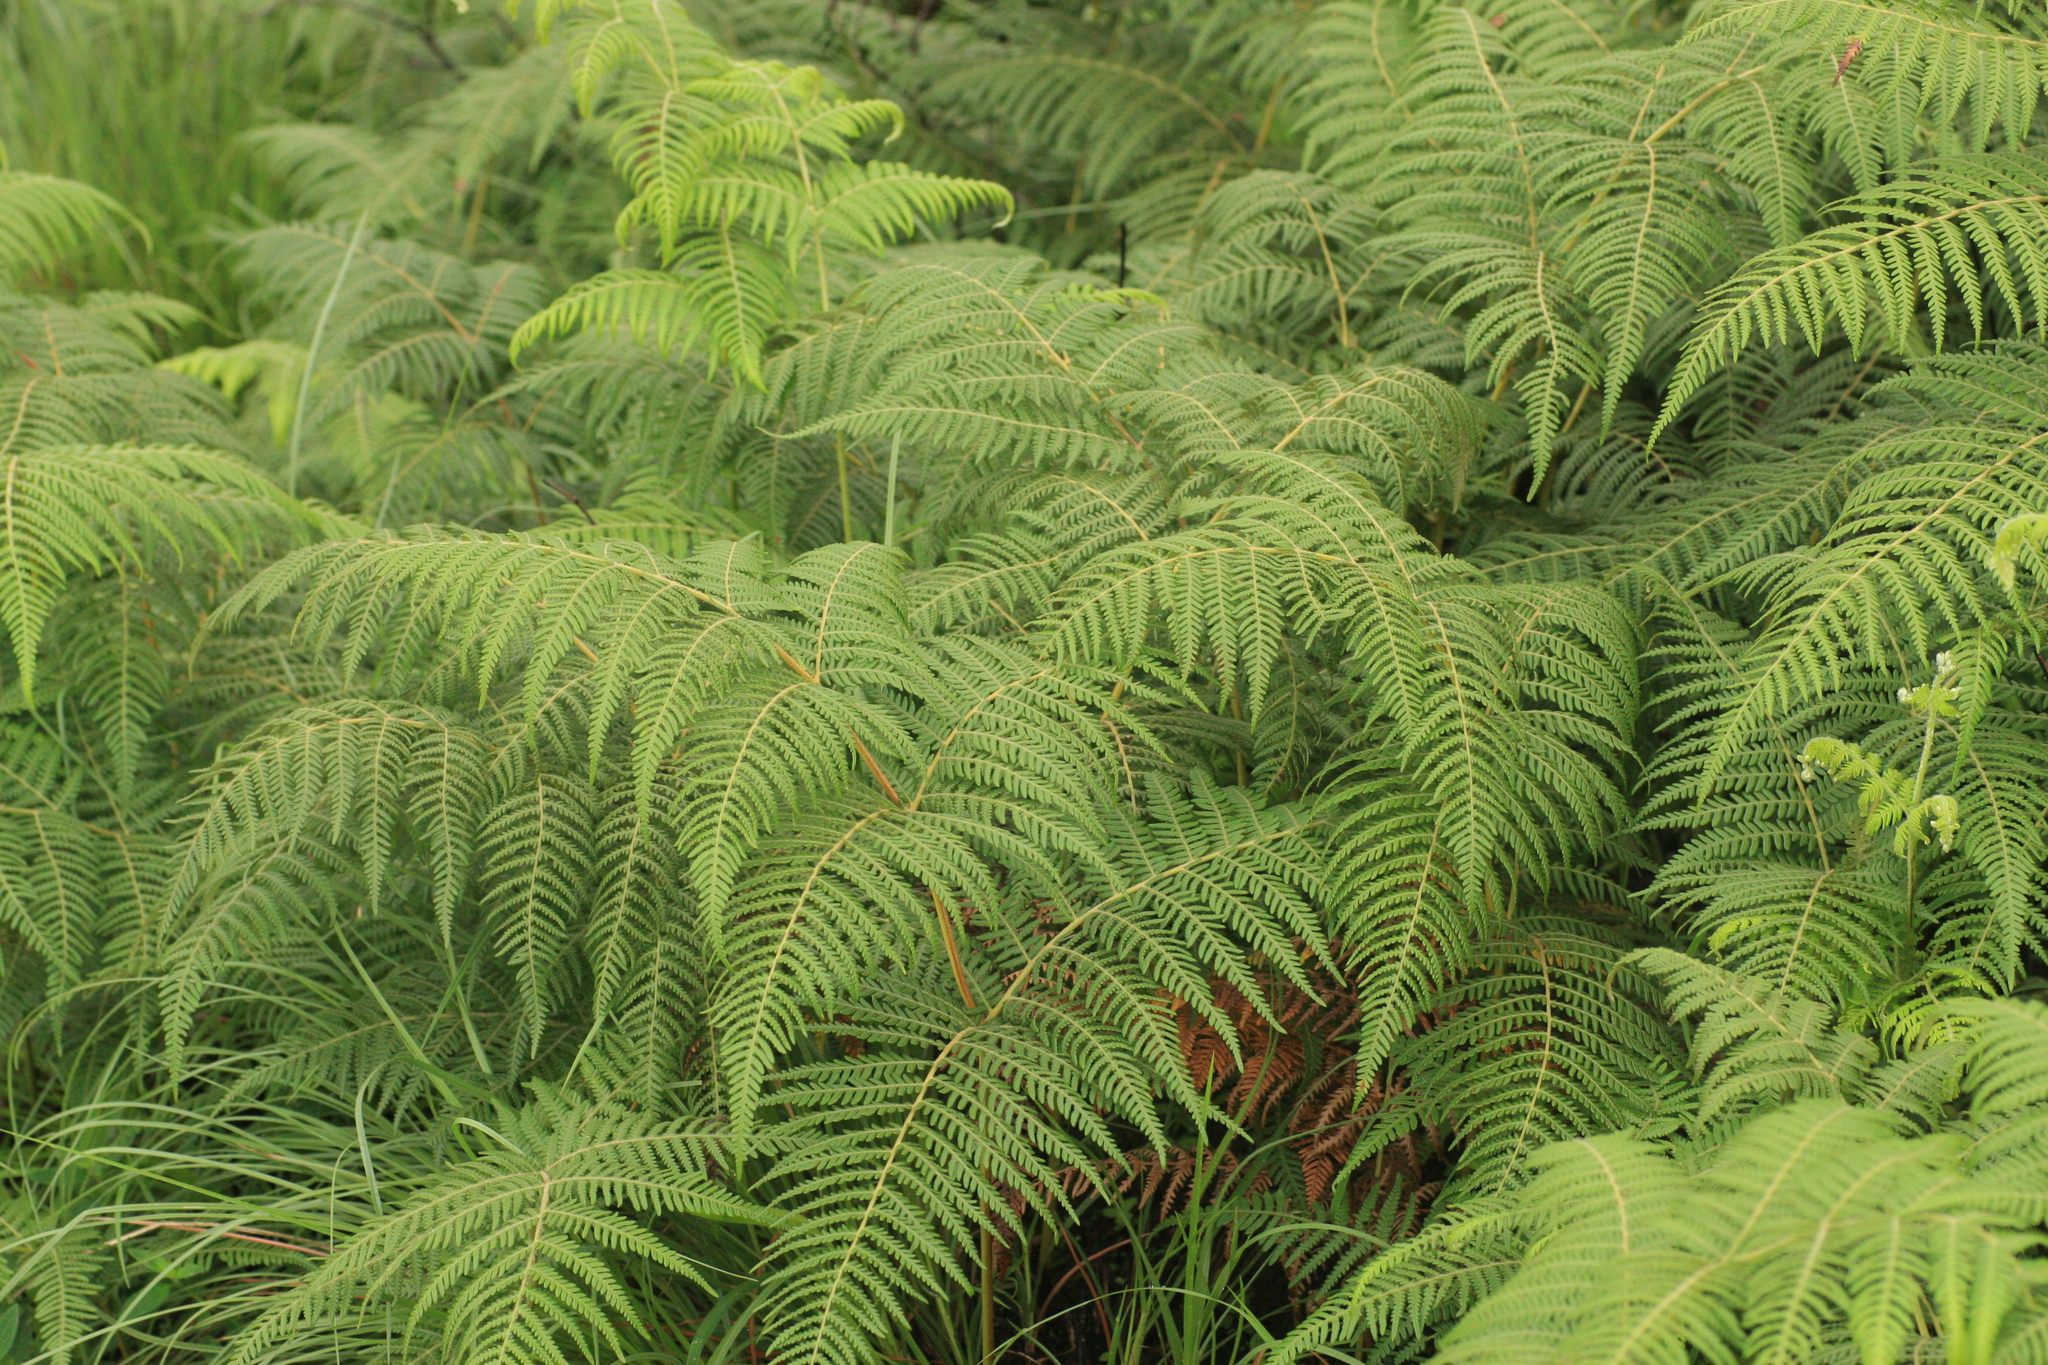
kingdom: Plantae
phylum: Tracheophyta
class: Polypodiopsida
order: Polypodiales
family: Dennstaedtiaceae
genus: Pteridium
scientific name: Pteridium aquilinum
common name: Bracken
